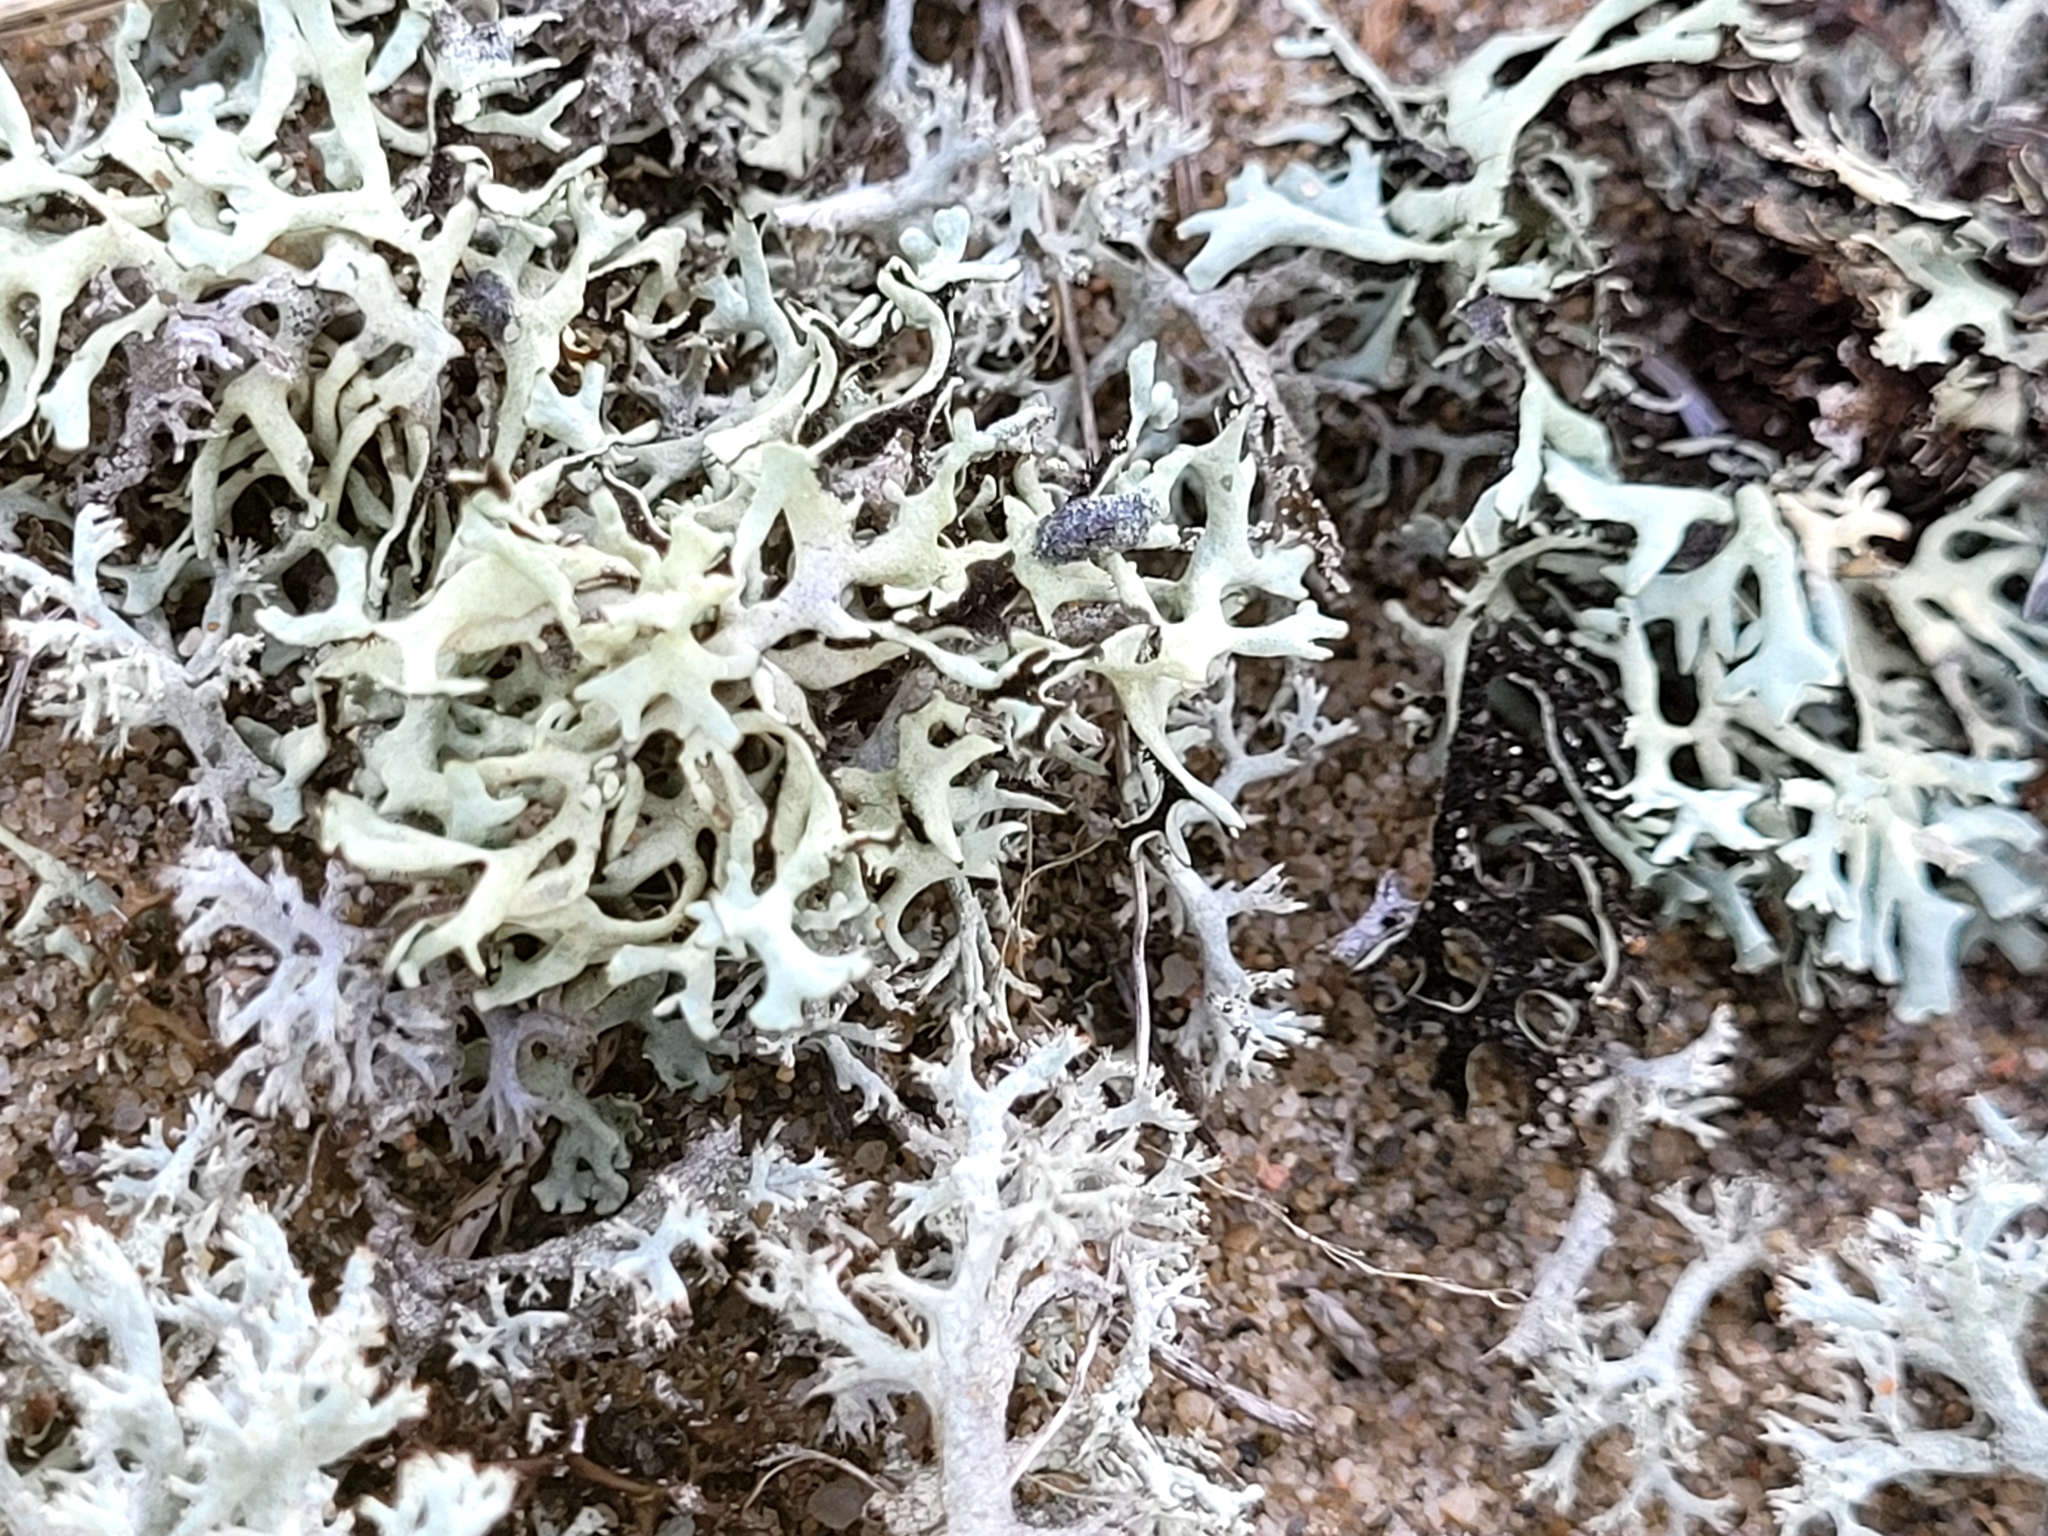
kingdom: Fungi
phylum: Ascomycota
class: Lecanoromycetes
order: Lecanorales
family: Parmeliaceae
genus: Xanthoparmelia
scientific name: Xanthoparmelia chlorochroa
